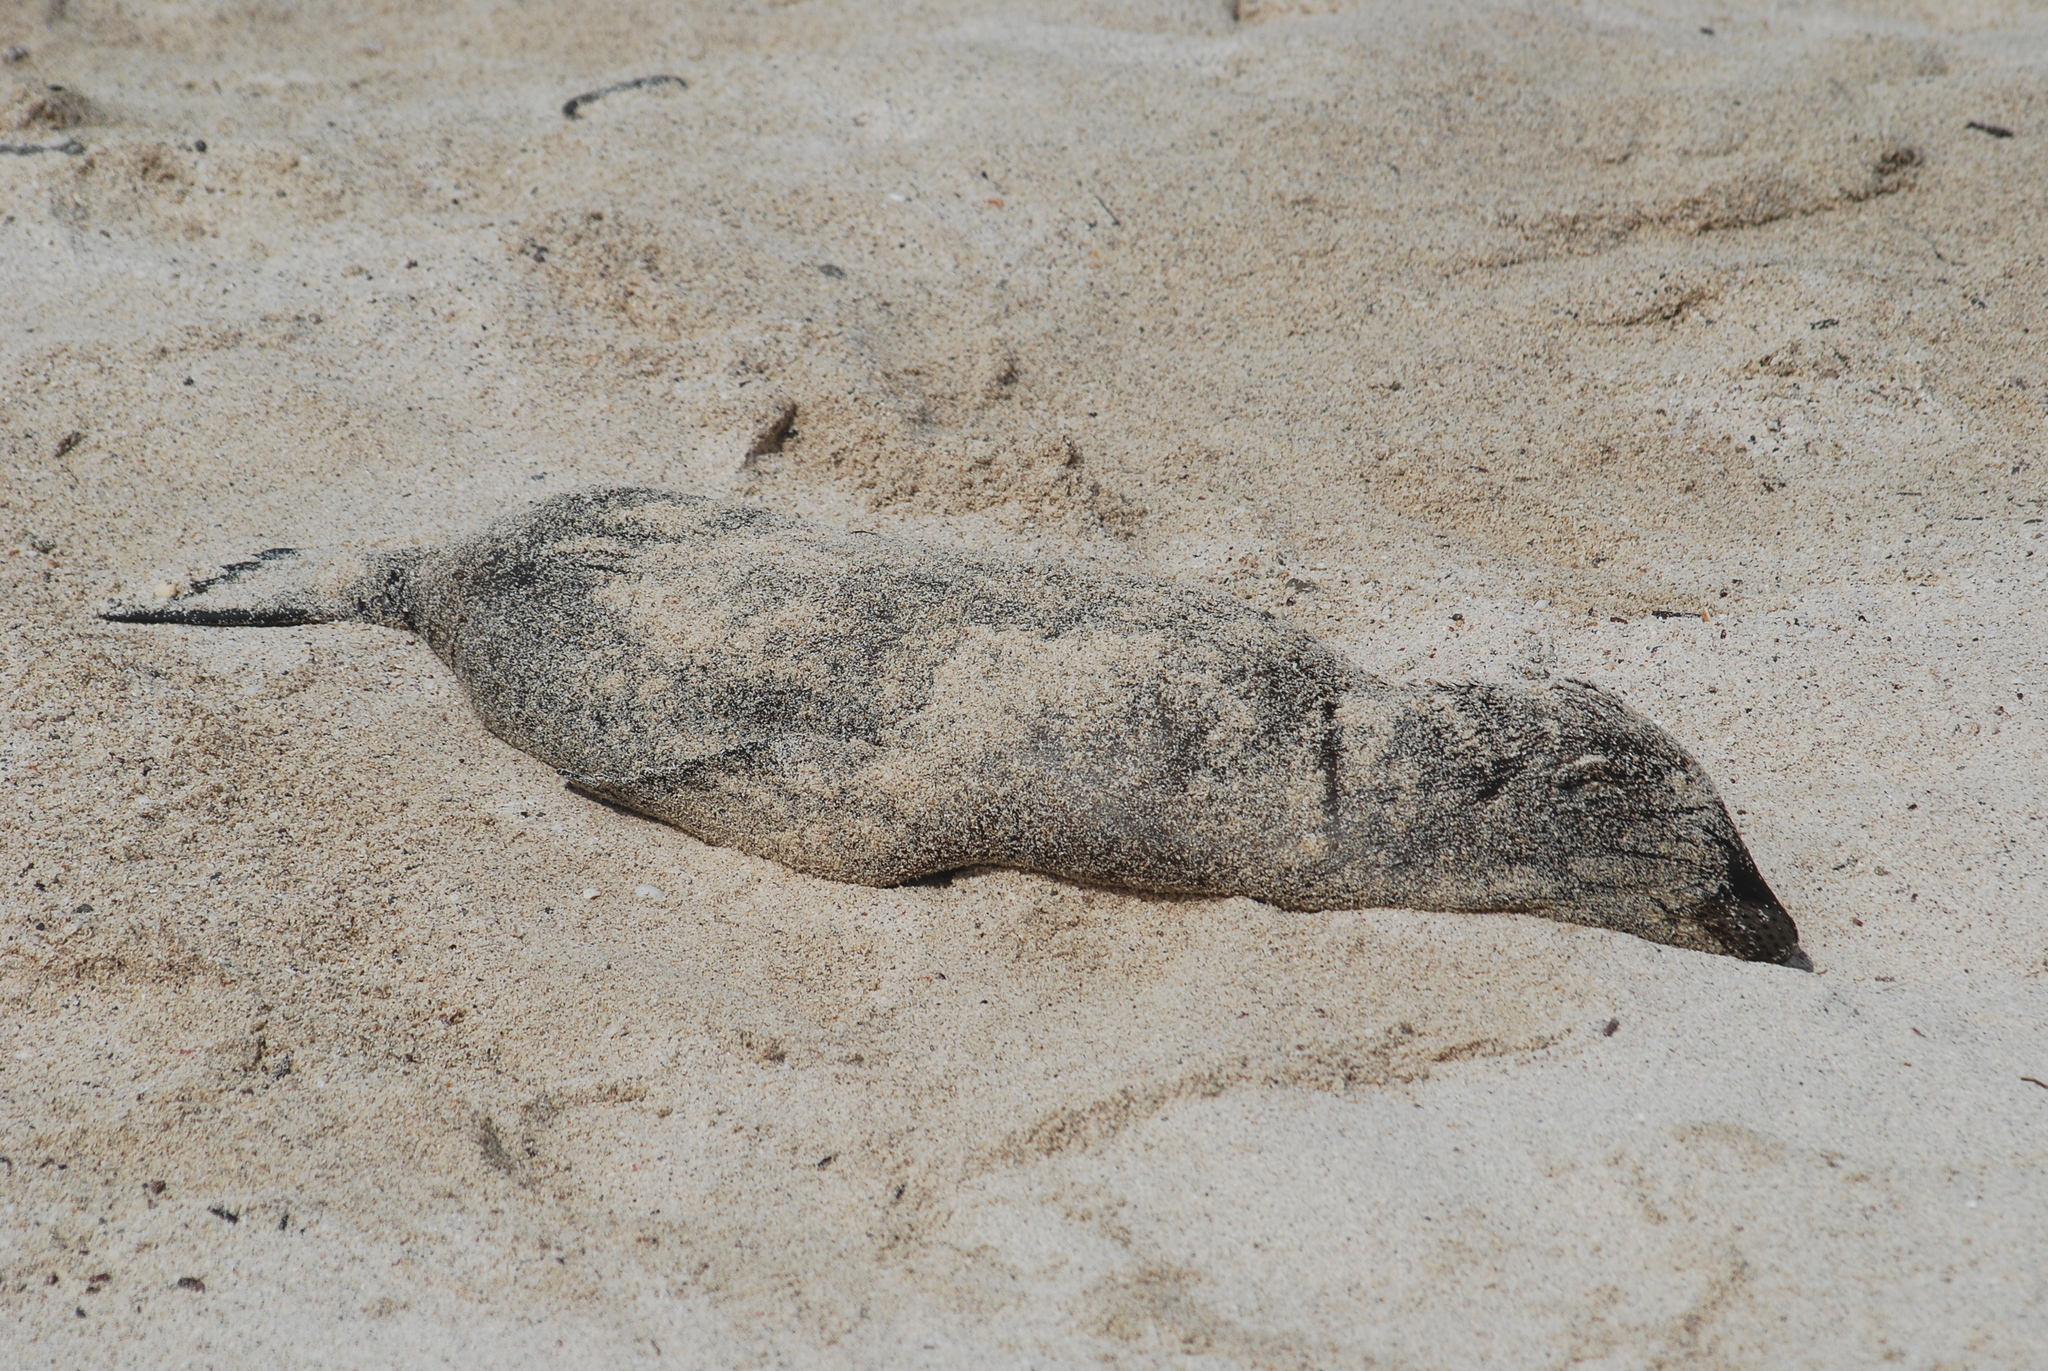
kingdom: Animalia
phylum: Chordata
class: Mammalia
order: Carnivora
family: Otariidae
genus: Zalophus
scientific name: Zalophus wollebaeki
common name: Galapagos sea lion
